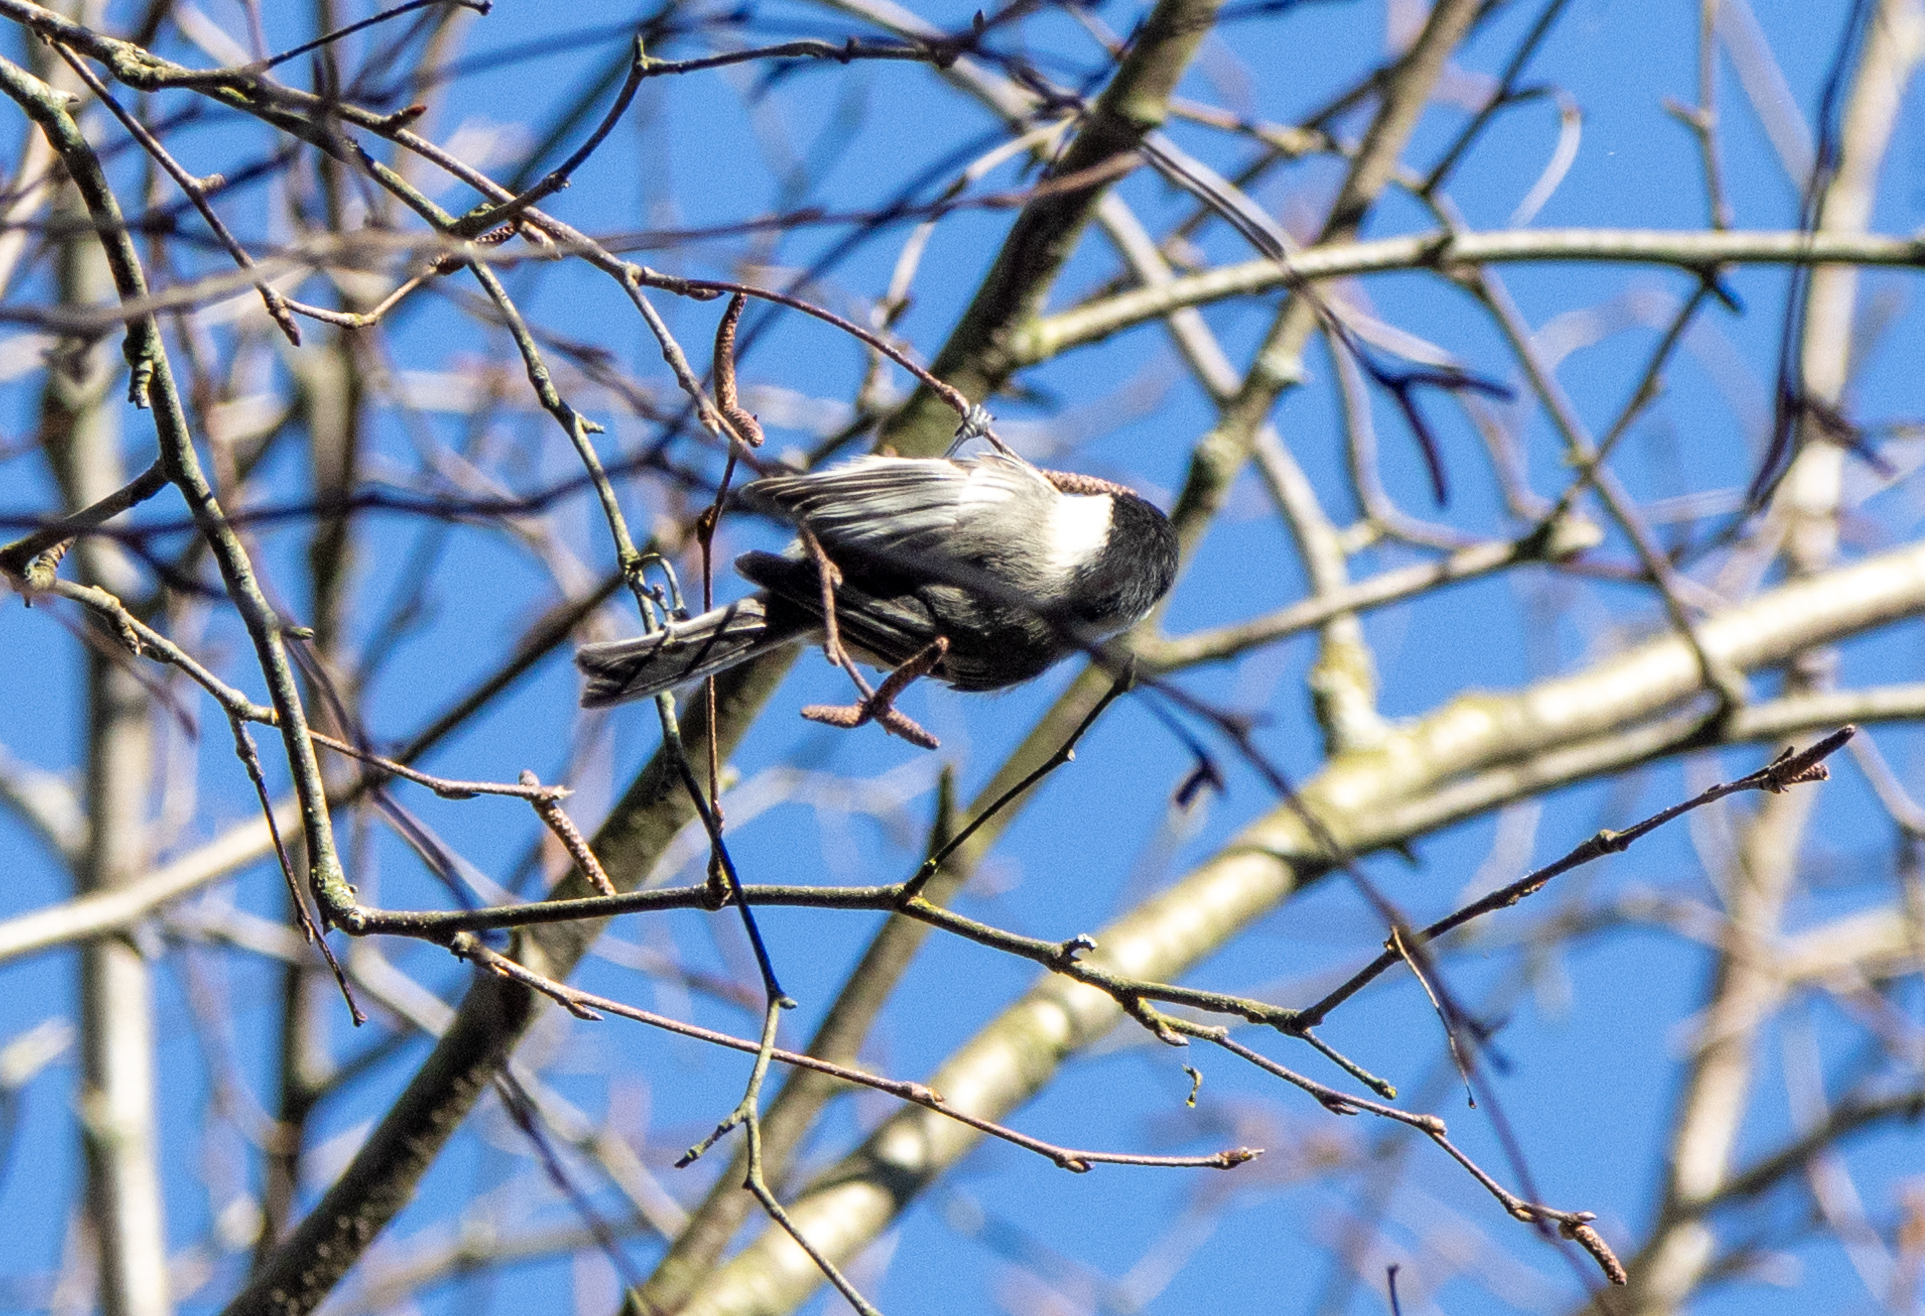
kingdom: Animalia
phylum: Chordata
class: Aves
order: Passeriformes
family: Paridae
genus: Poecile
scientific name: Poecile atricapillus
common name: Black-capped chickadee
